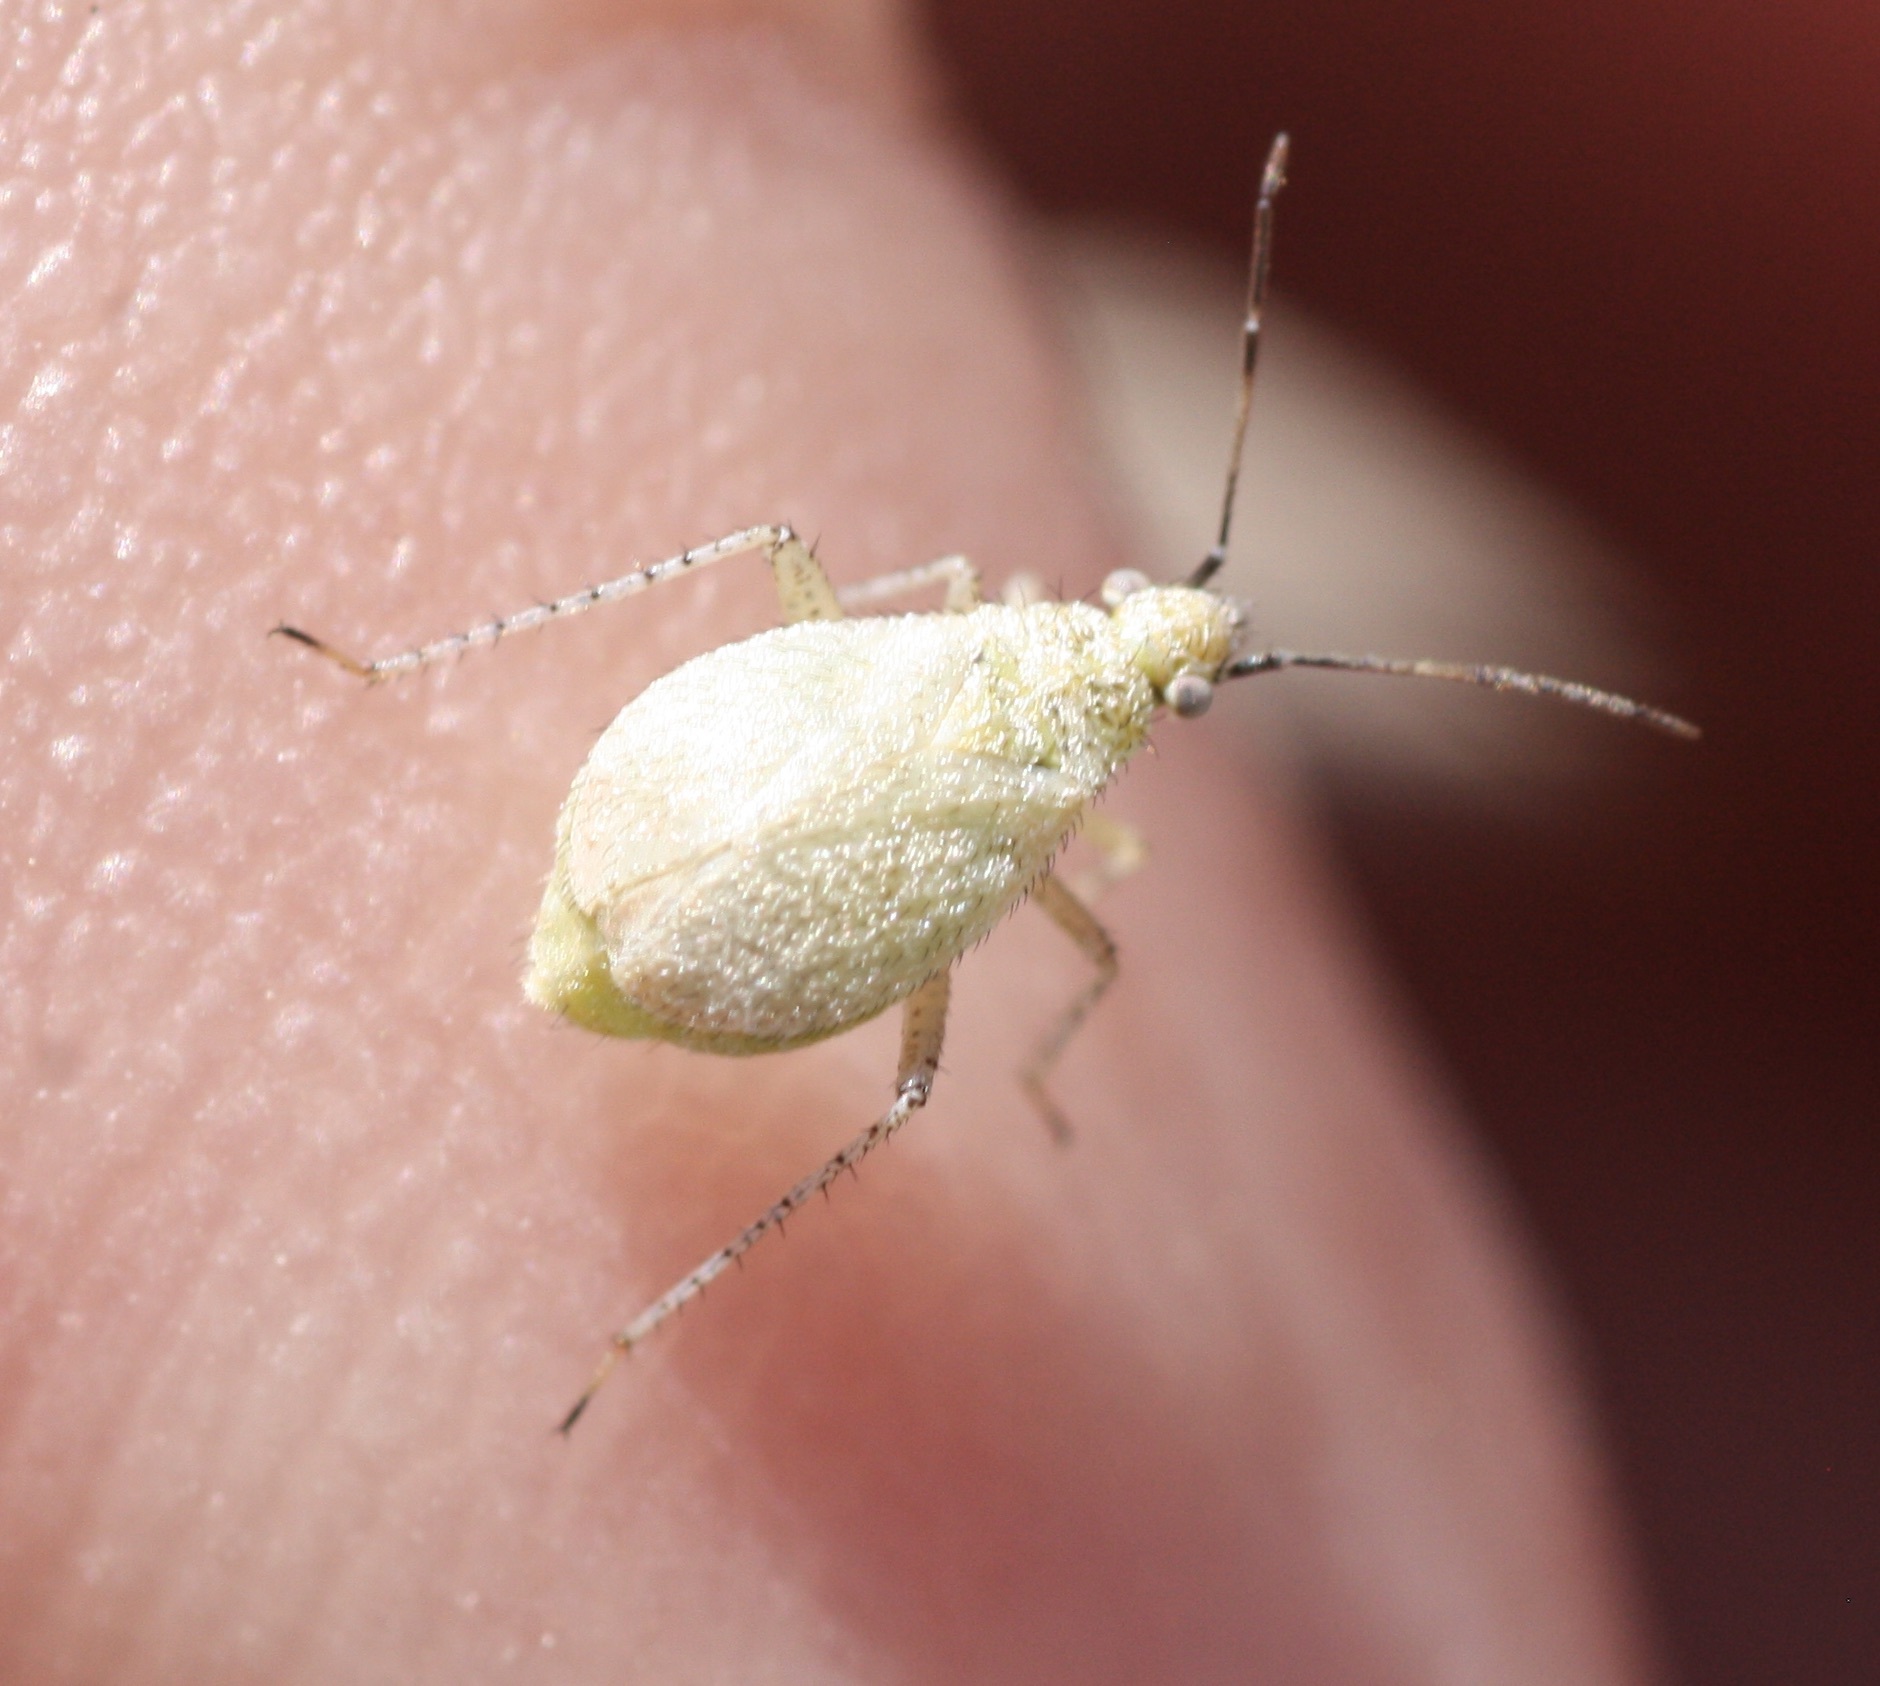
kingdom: Animalia
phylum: Arthropoda
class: Insecta
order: Hemiptera
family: Miridae
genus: Hoplomachidea
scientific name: Hoplomachidea consors
